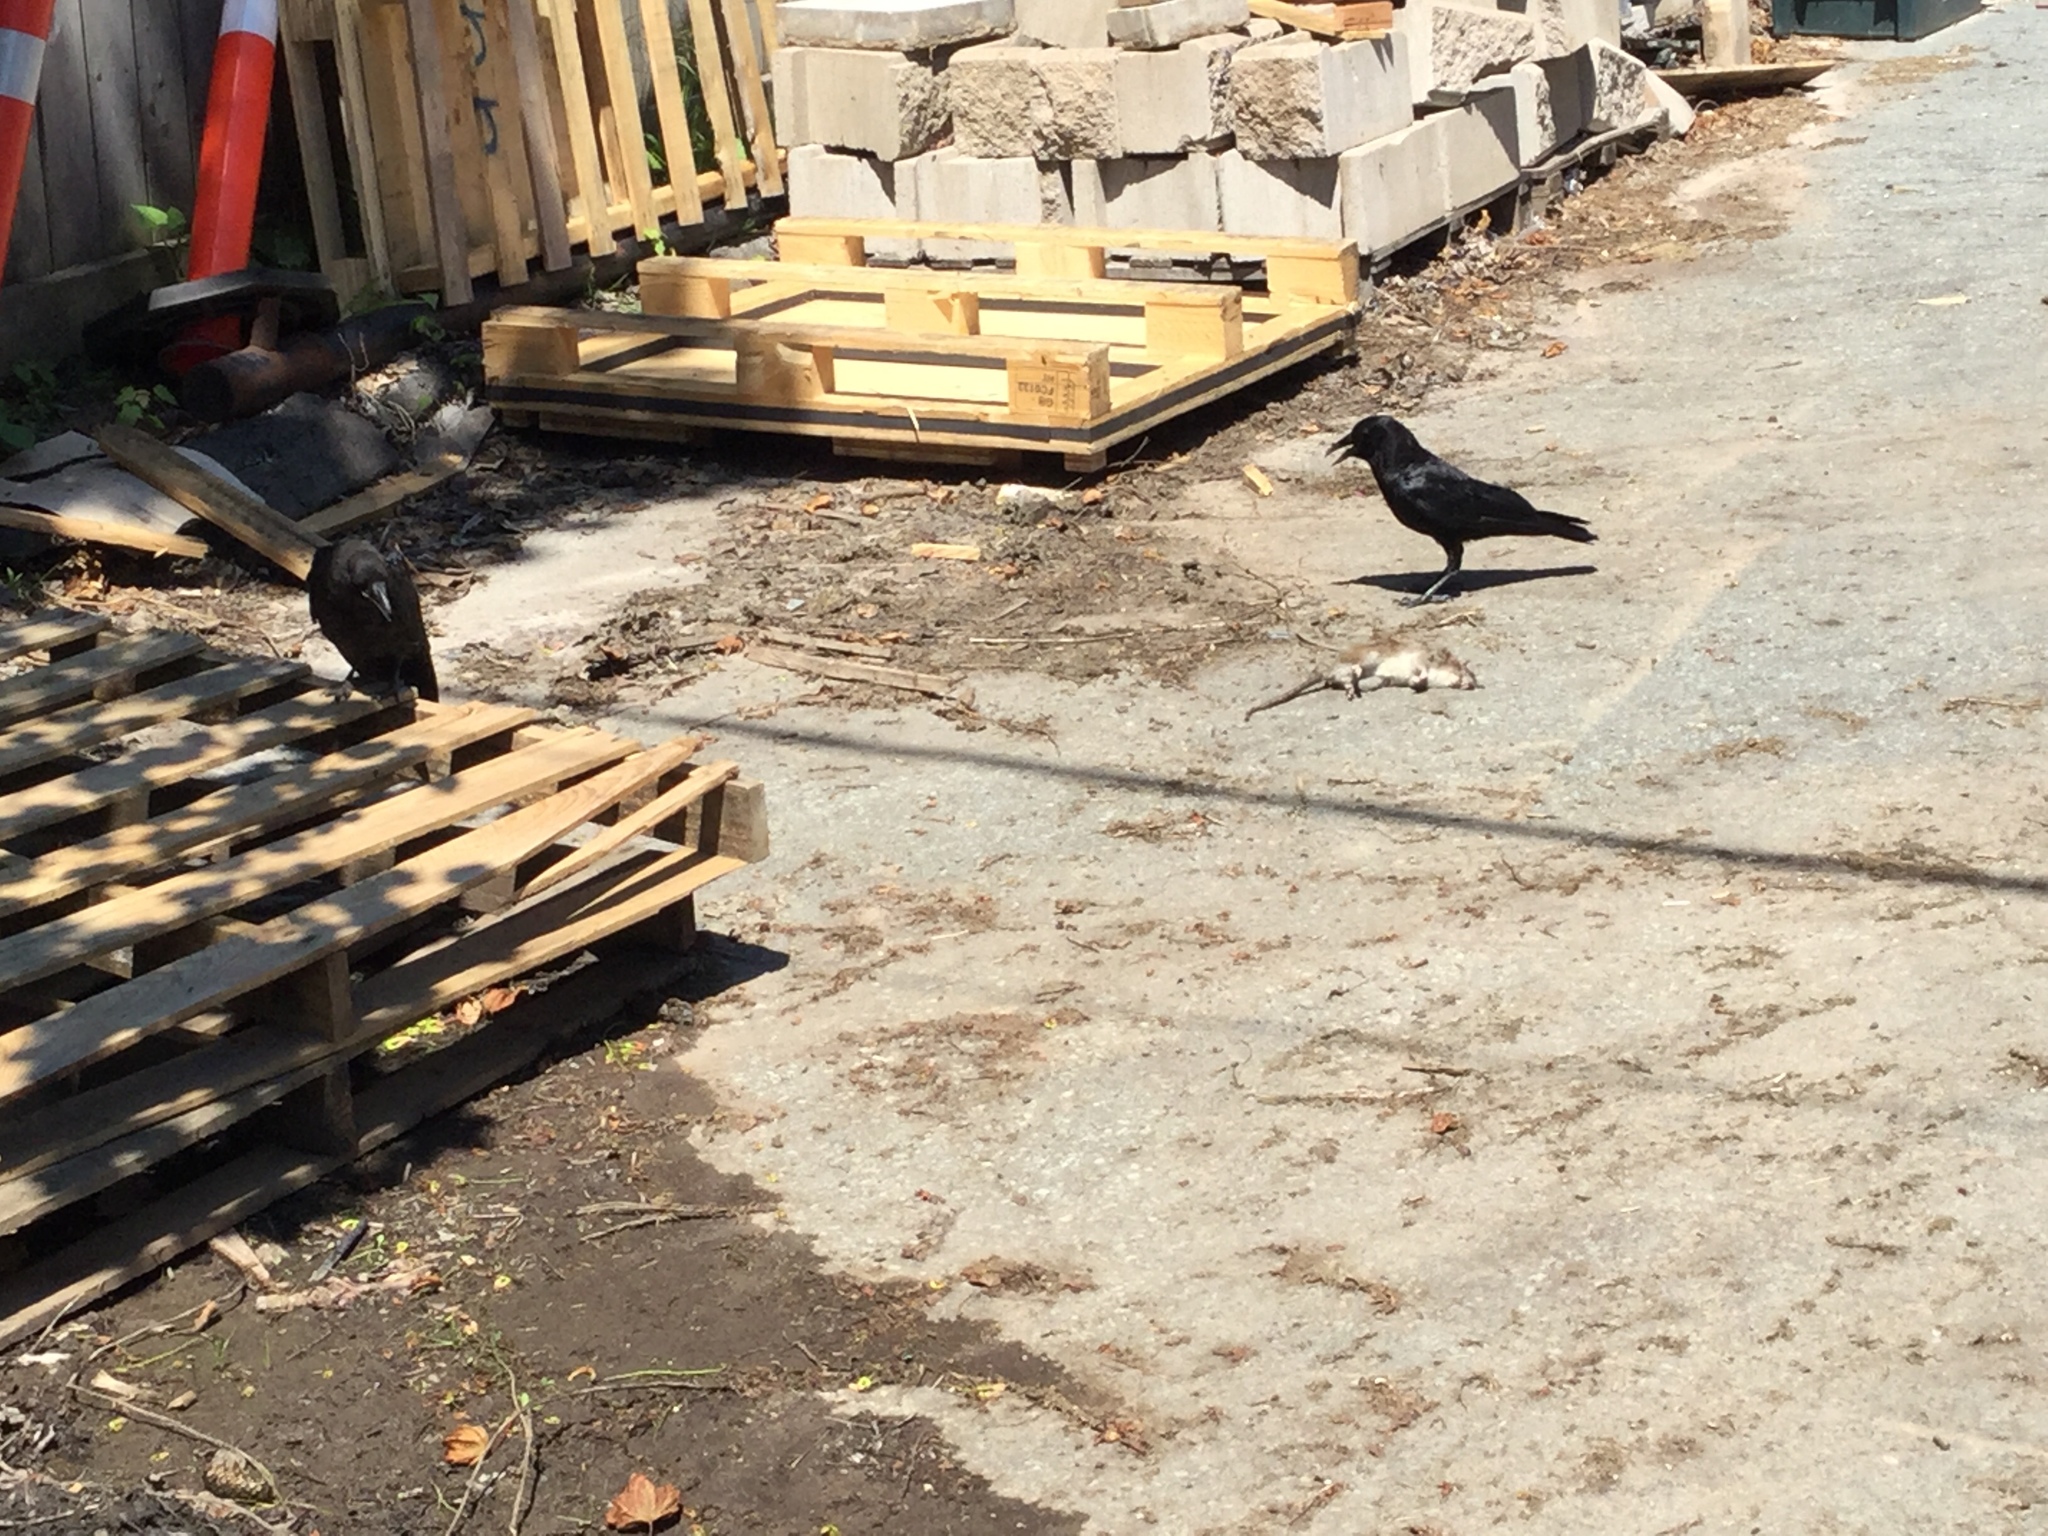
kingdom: Animalia
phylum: Chordata
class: Aves
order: Passeriformes
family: Corvidae
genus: Corvus
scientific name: Corvus brachyrhynchos
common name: American crow
